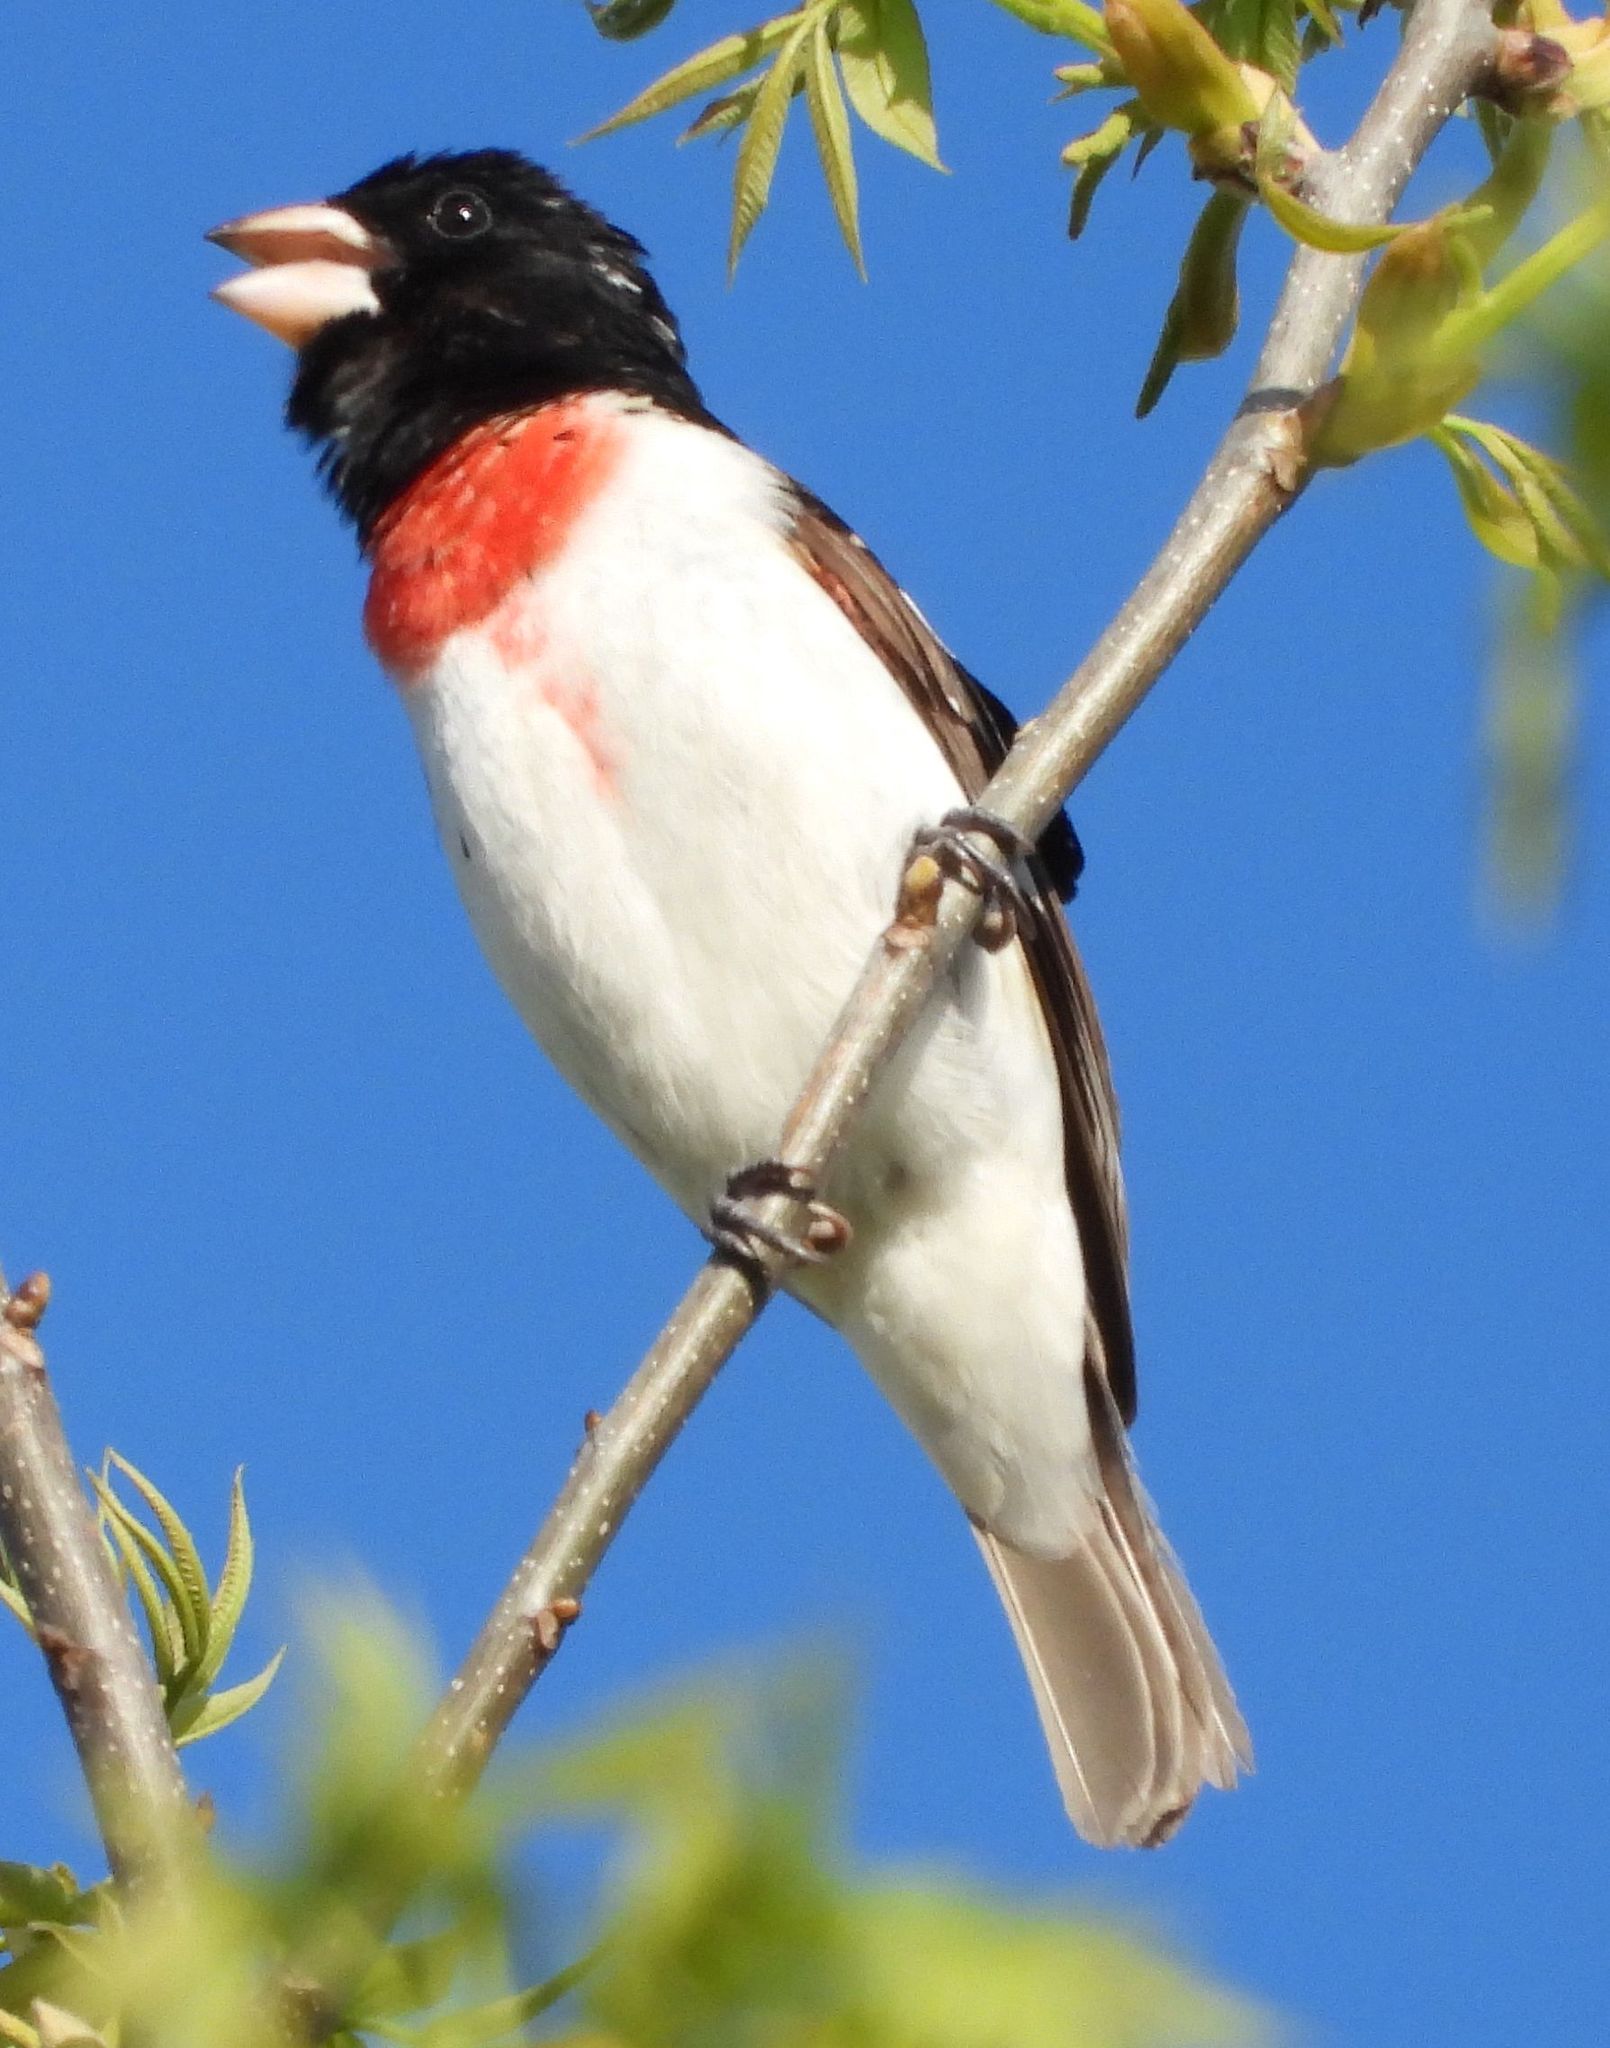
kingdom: Animalia
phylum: Chordata
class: Aves
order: Passeriformes
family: Cardinalidae
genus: Pheucticus
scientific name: Pheucticus ludovicianus
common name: Rose-breasted grosbeak
